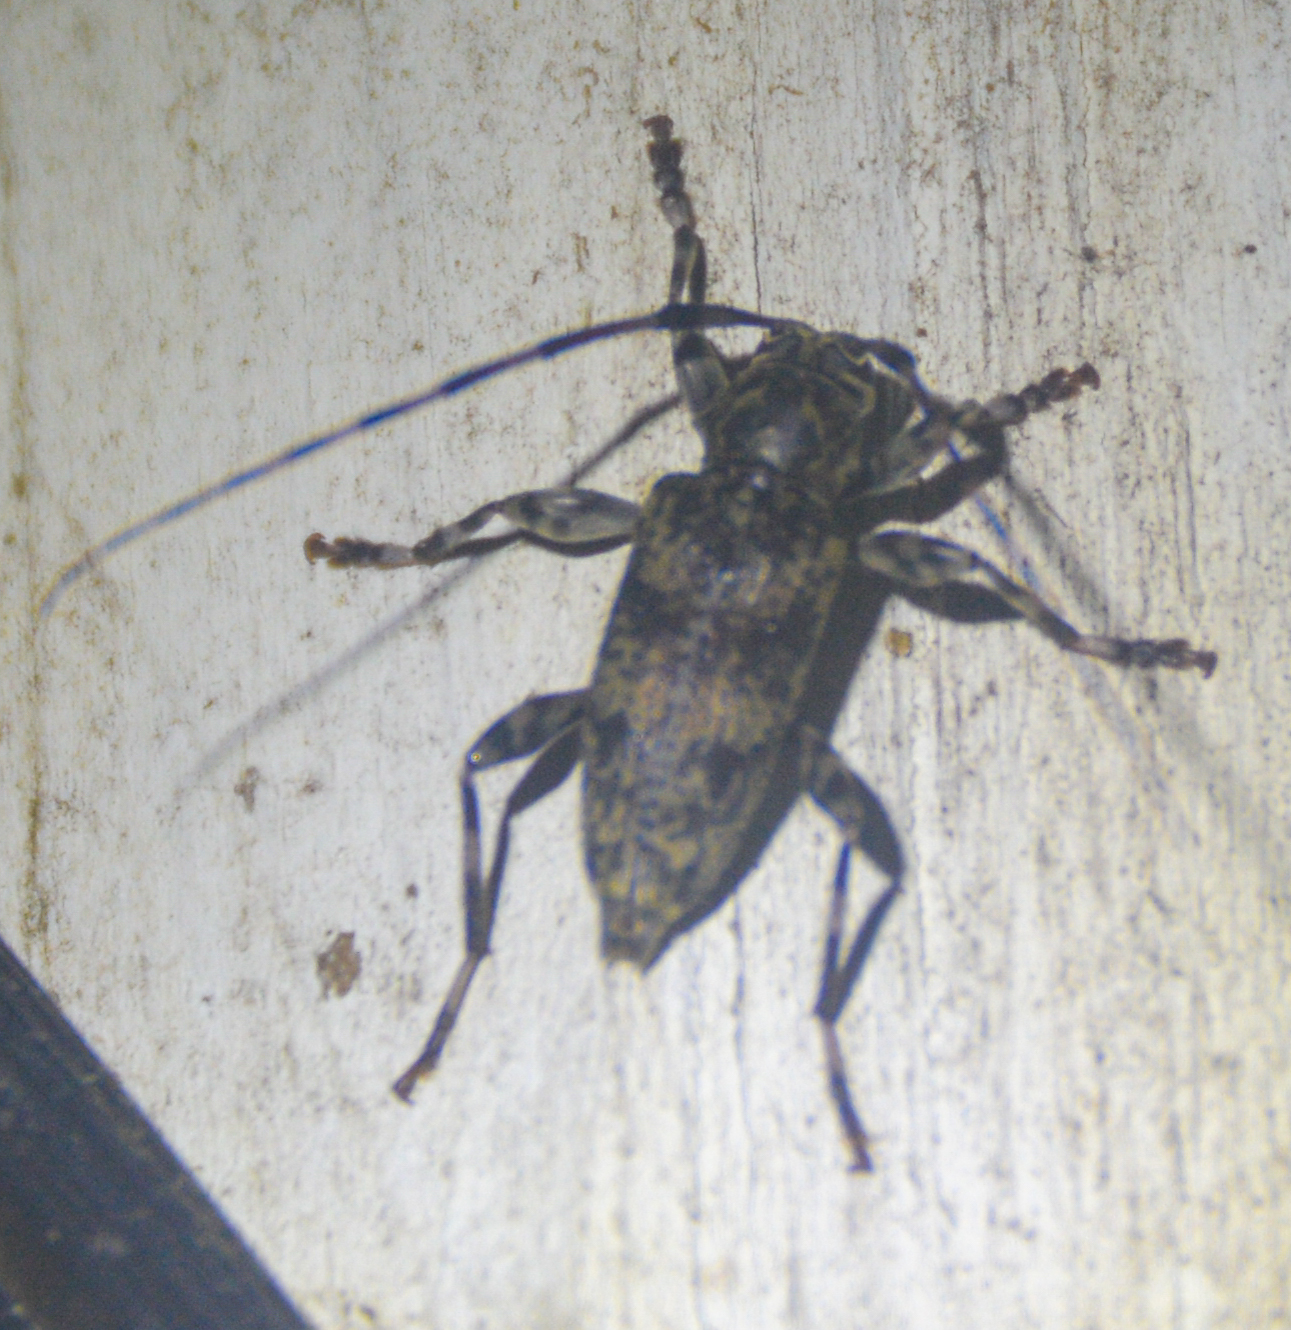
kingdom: Animalia
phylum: Arthropoda
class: Insecta
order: Coleoptera
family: Cerambycidae
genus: Graphisurus
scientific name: Graphisurus fasciatus
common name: Banded graphisurus
